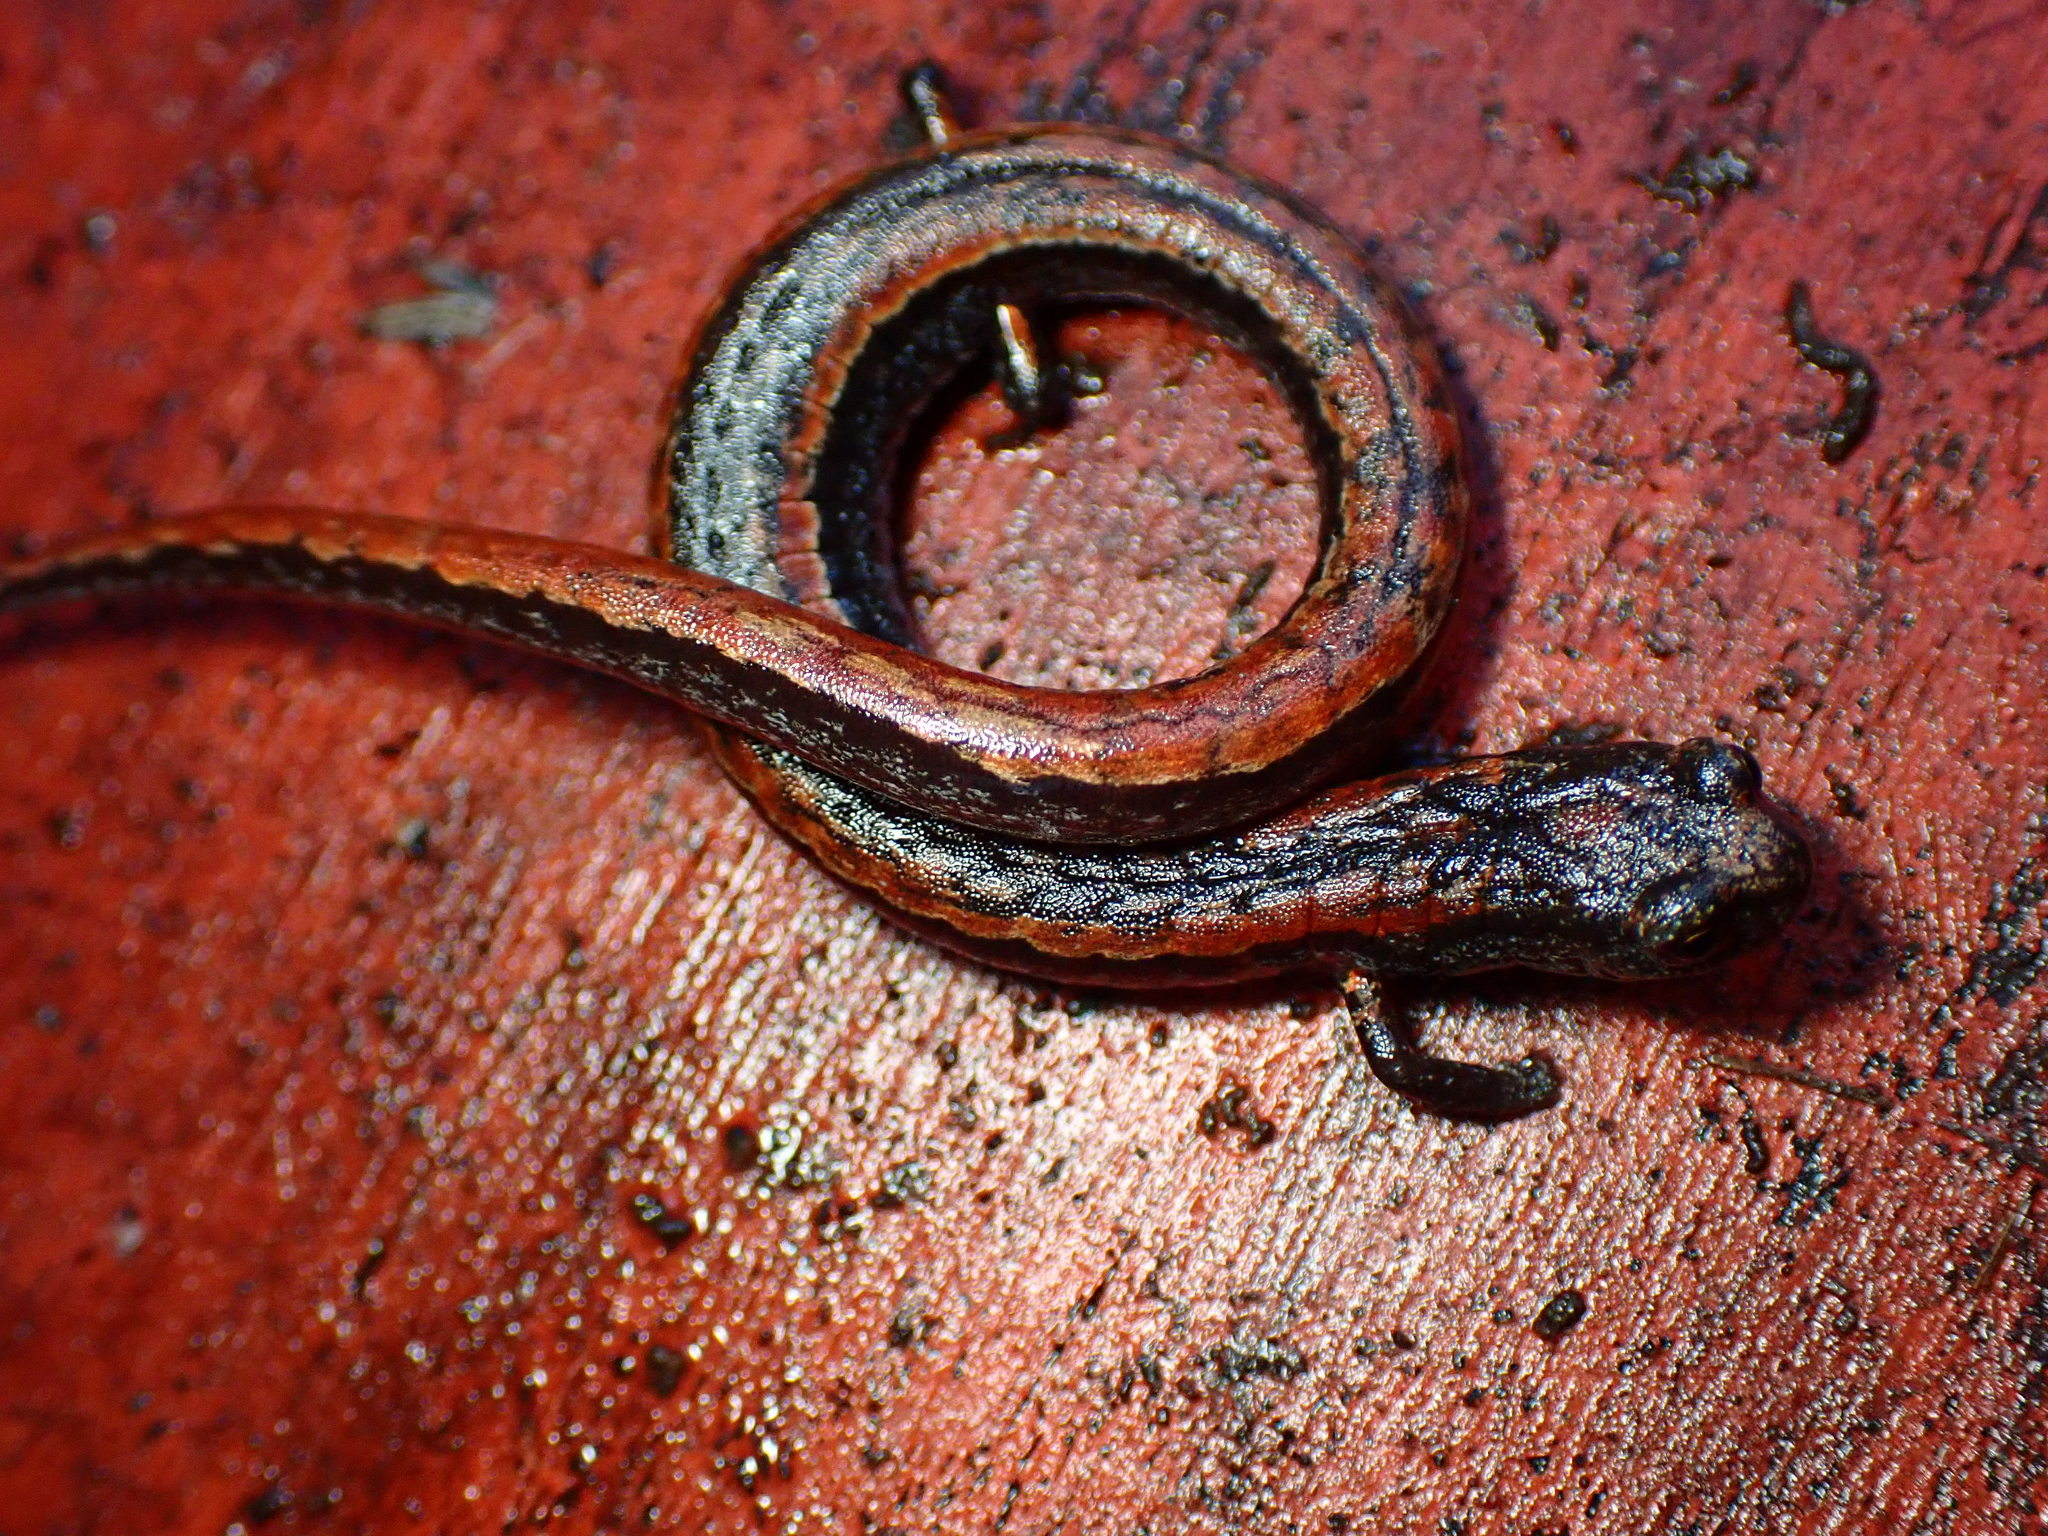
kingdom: Animalia
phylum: Chordata
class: Amphibia
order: Caudata
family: Plethodontidae
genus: Batrachoseps
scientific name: Batrachoseps attenuatus
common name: California slender salamander
